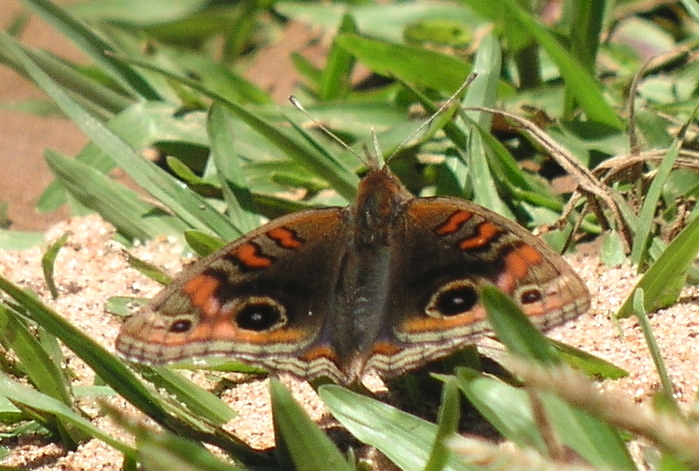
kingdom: Animalia
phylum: Arthropoda
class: Insecta
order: Lepidoptera
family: Nymphalidae
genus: Junonia
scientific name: Junonia lavinia
